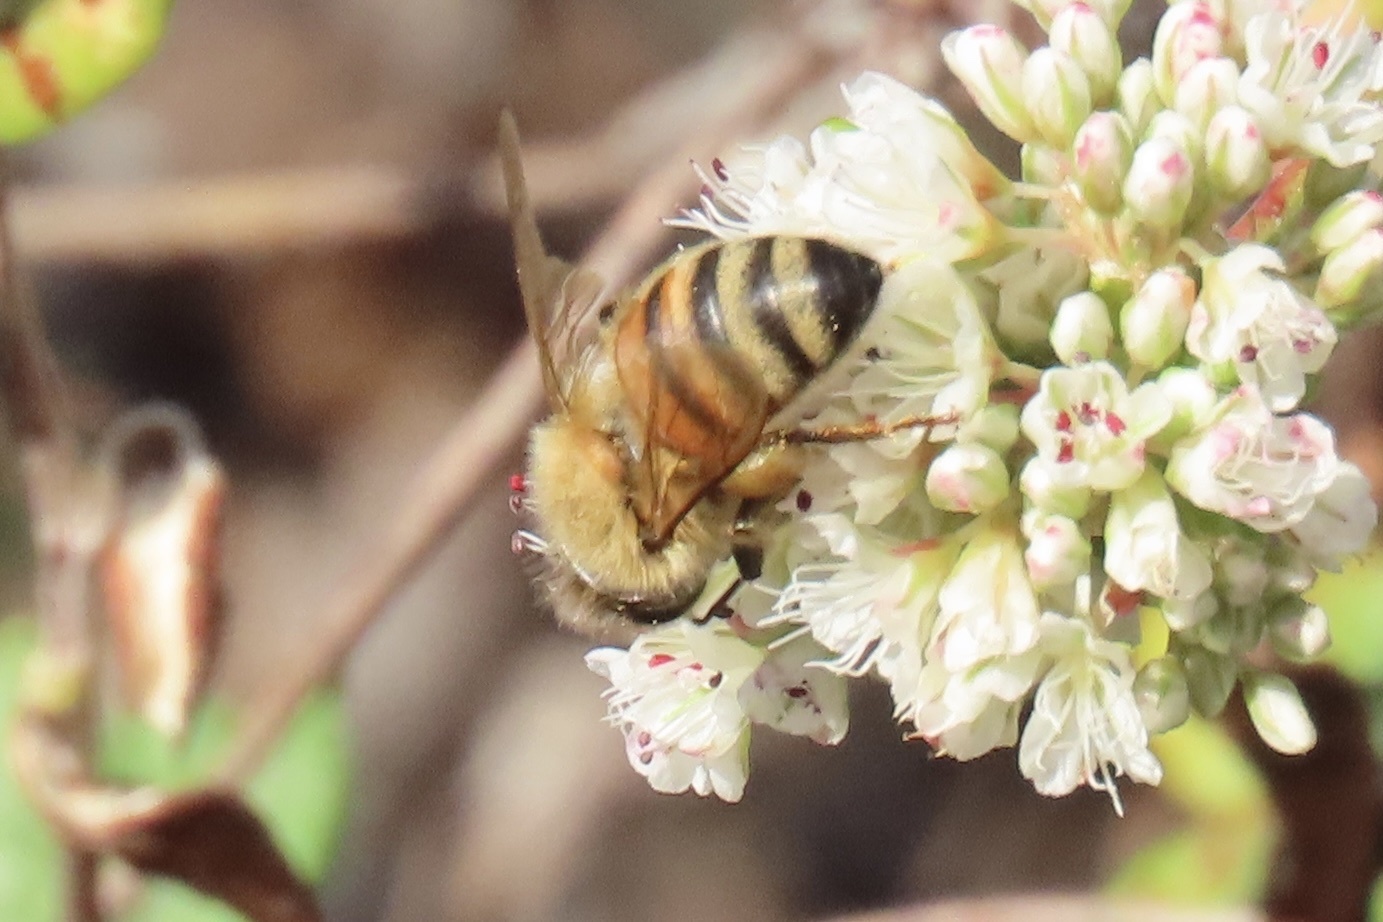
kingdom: Animalia
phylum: Arthropoda
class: Insecta
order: Hymenoptera
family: Apidae
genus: Apis
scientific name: Apis mellifera
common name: Honey bee
